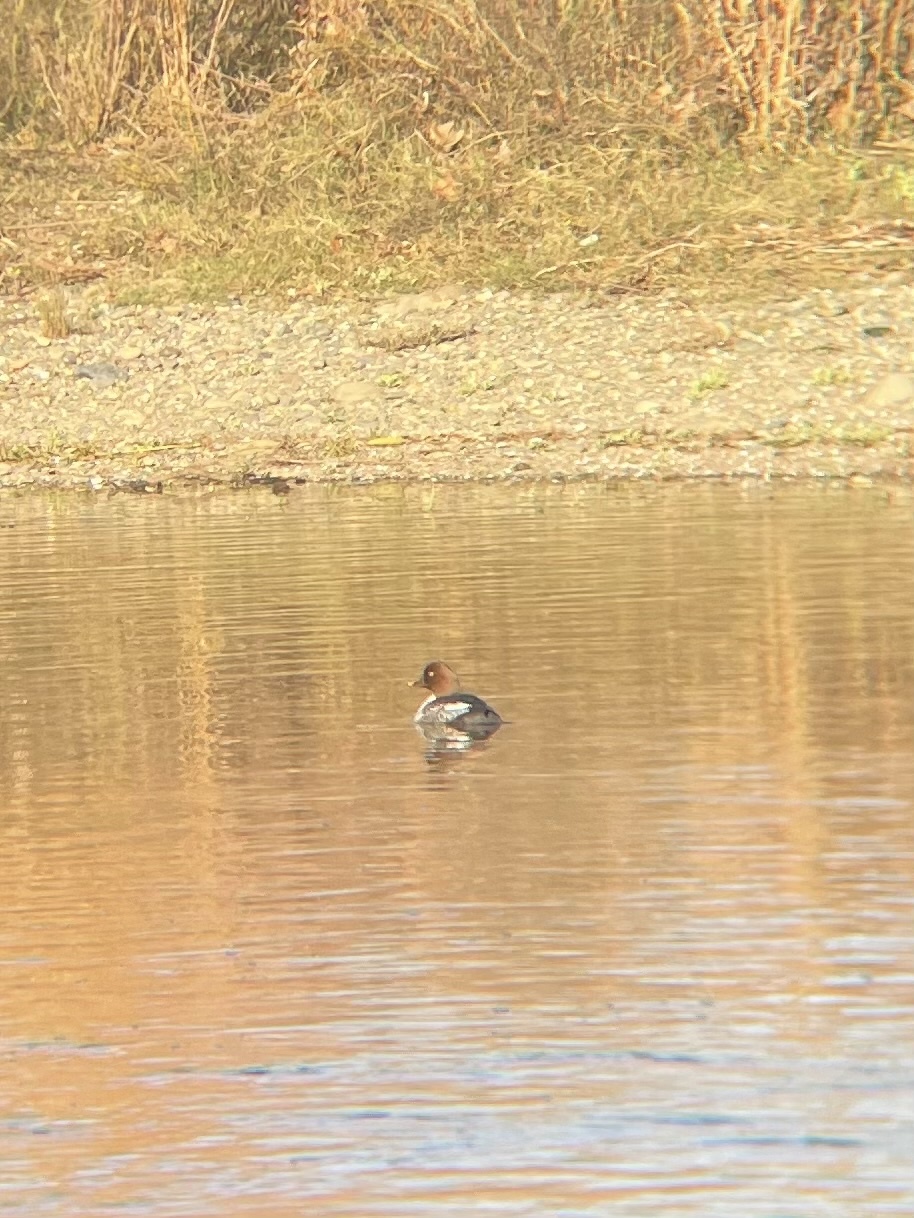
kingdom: Animalia
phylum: Chordata
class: Aves
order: Anseriformes
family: Anatidae
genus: Bucephala
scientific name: Bucephala clangula
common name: Common goldeneye
